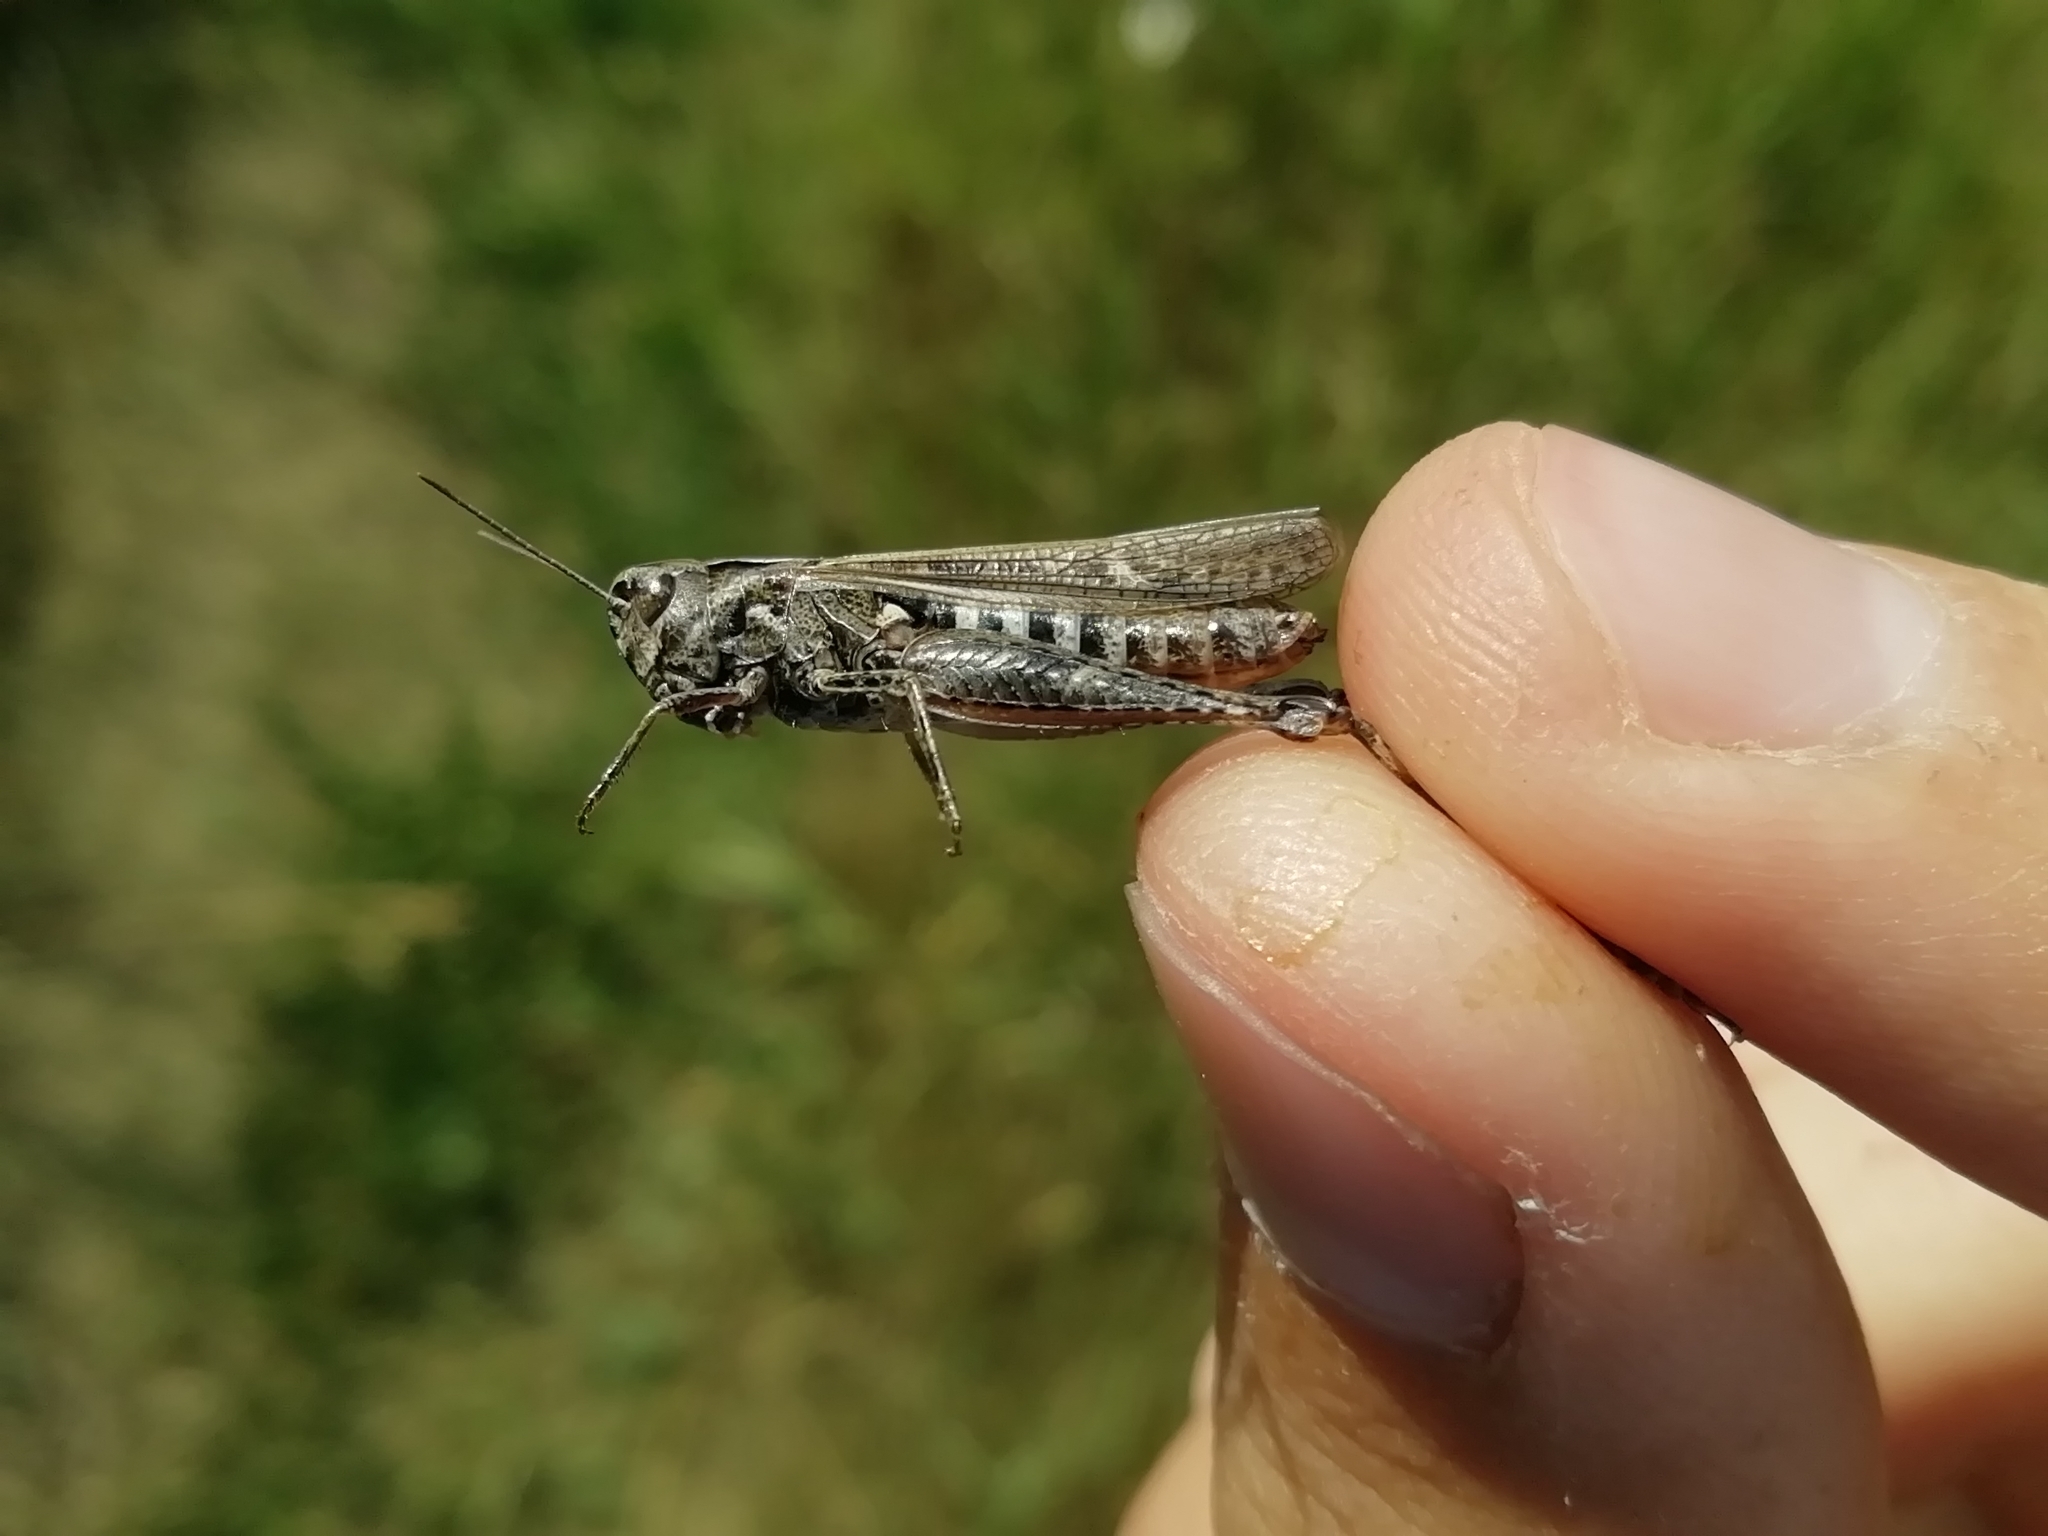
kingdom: Animalia
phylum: Arthropoda
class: Insecta
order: Orthoptera
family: Acrididae
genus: Omocestus
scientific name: Omocestus rufipes
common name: Woodland grasshopper
